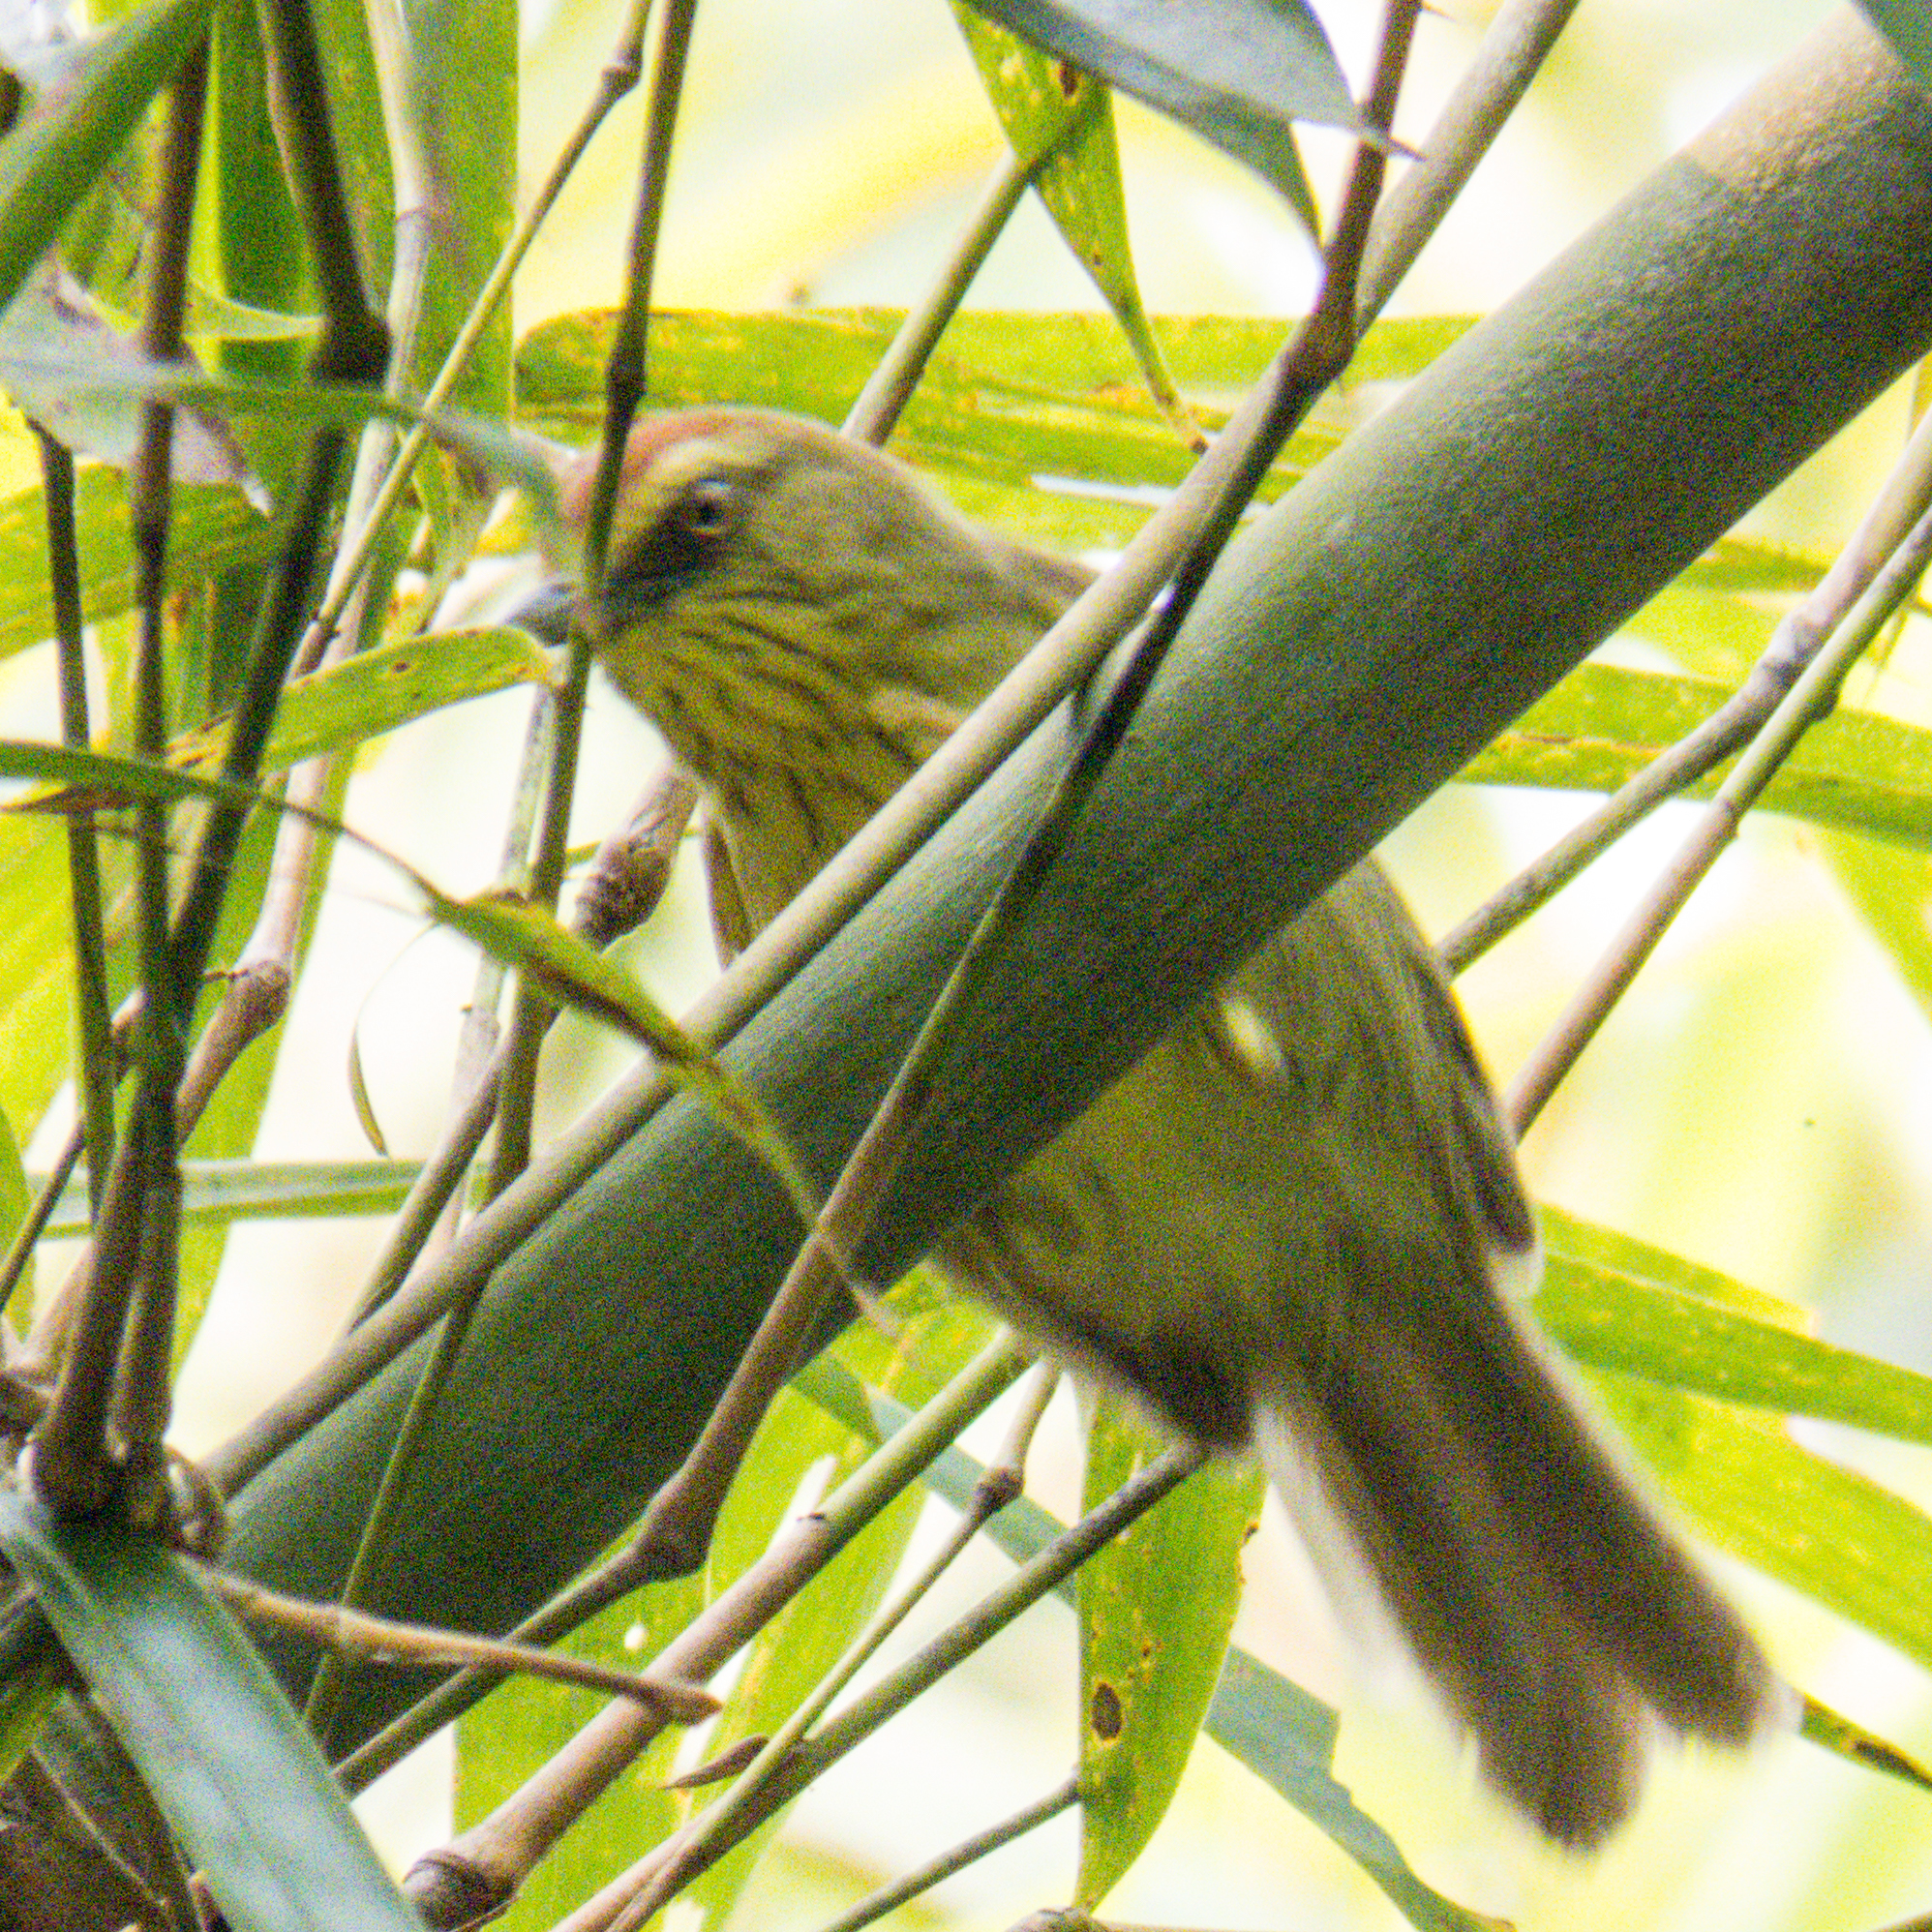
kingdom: Animalia
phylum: Chordata
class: Aves
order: Passeriformes
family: Timaliidae
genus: Macronus
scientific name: Macronus gularis
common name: Striped tit-babbler
